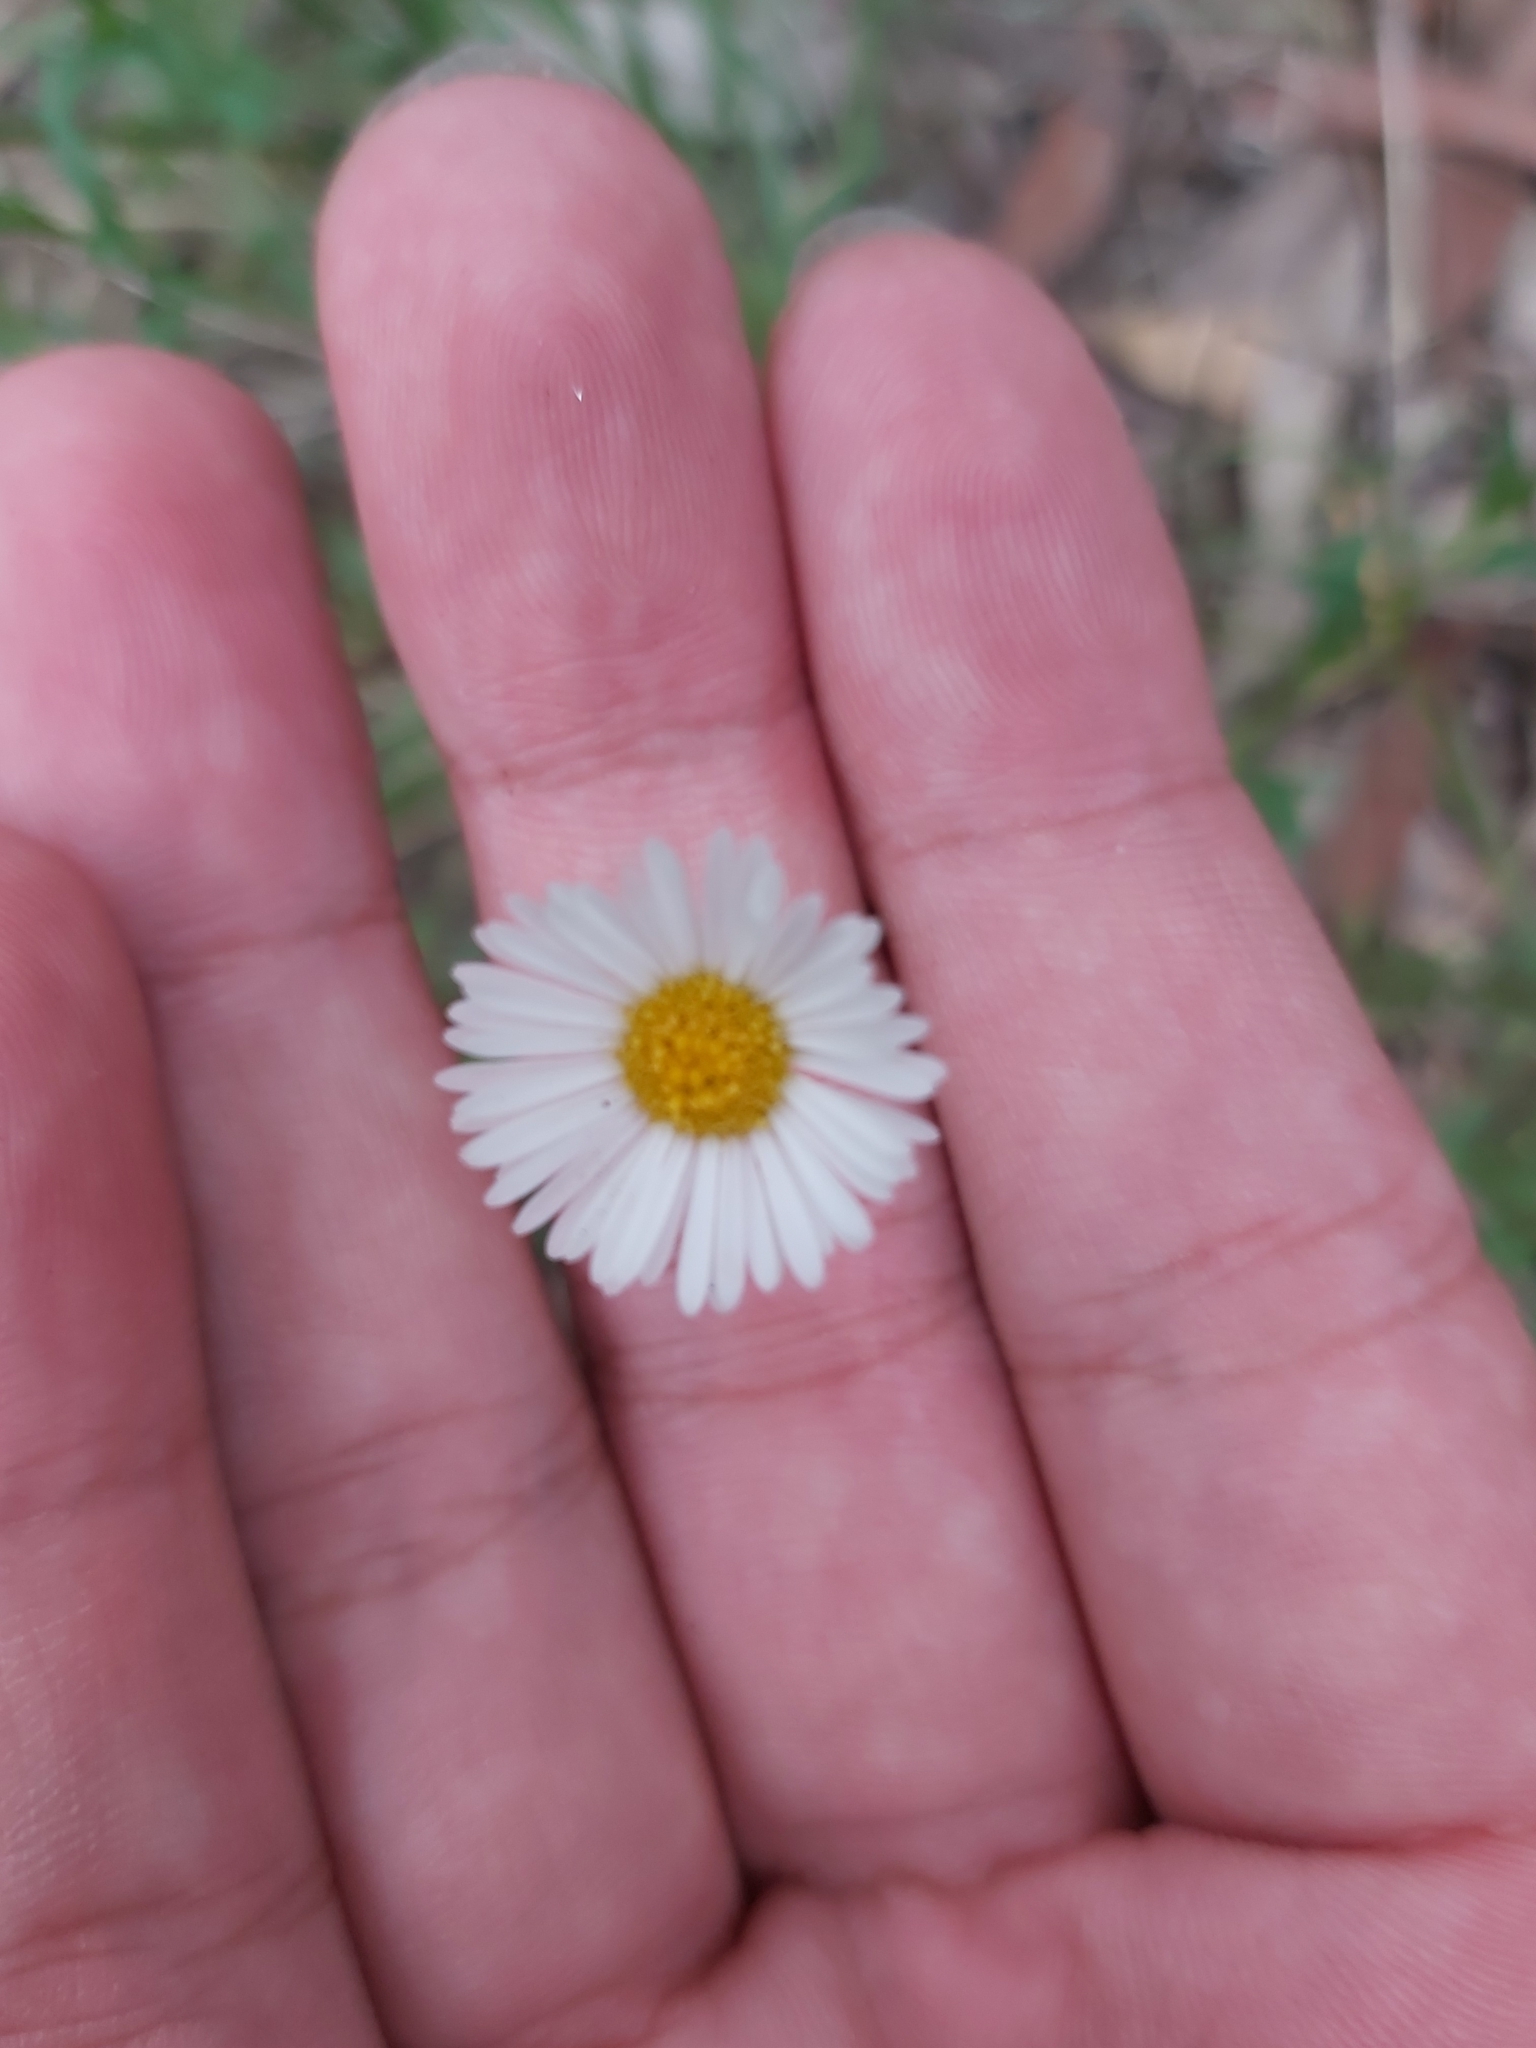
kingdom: Plantae
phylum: Tracheophyta
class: Magnoliopsida
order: Asterales
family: Asteraceae
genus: Erigeron
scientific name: Erigeron karvinskianus
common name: Mexican fleabane
